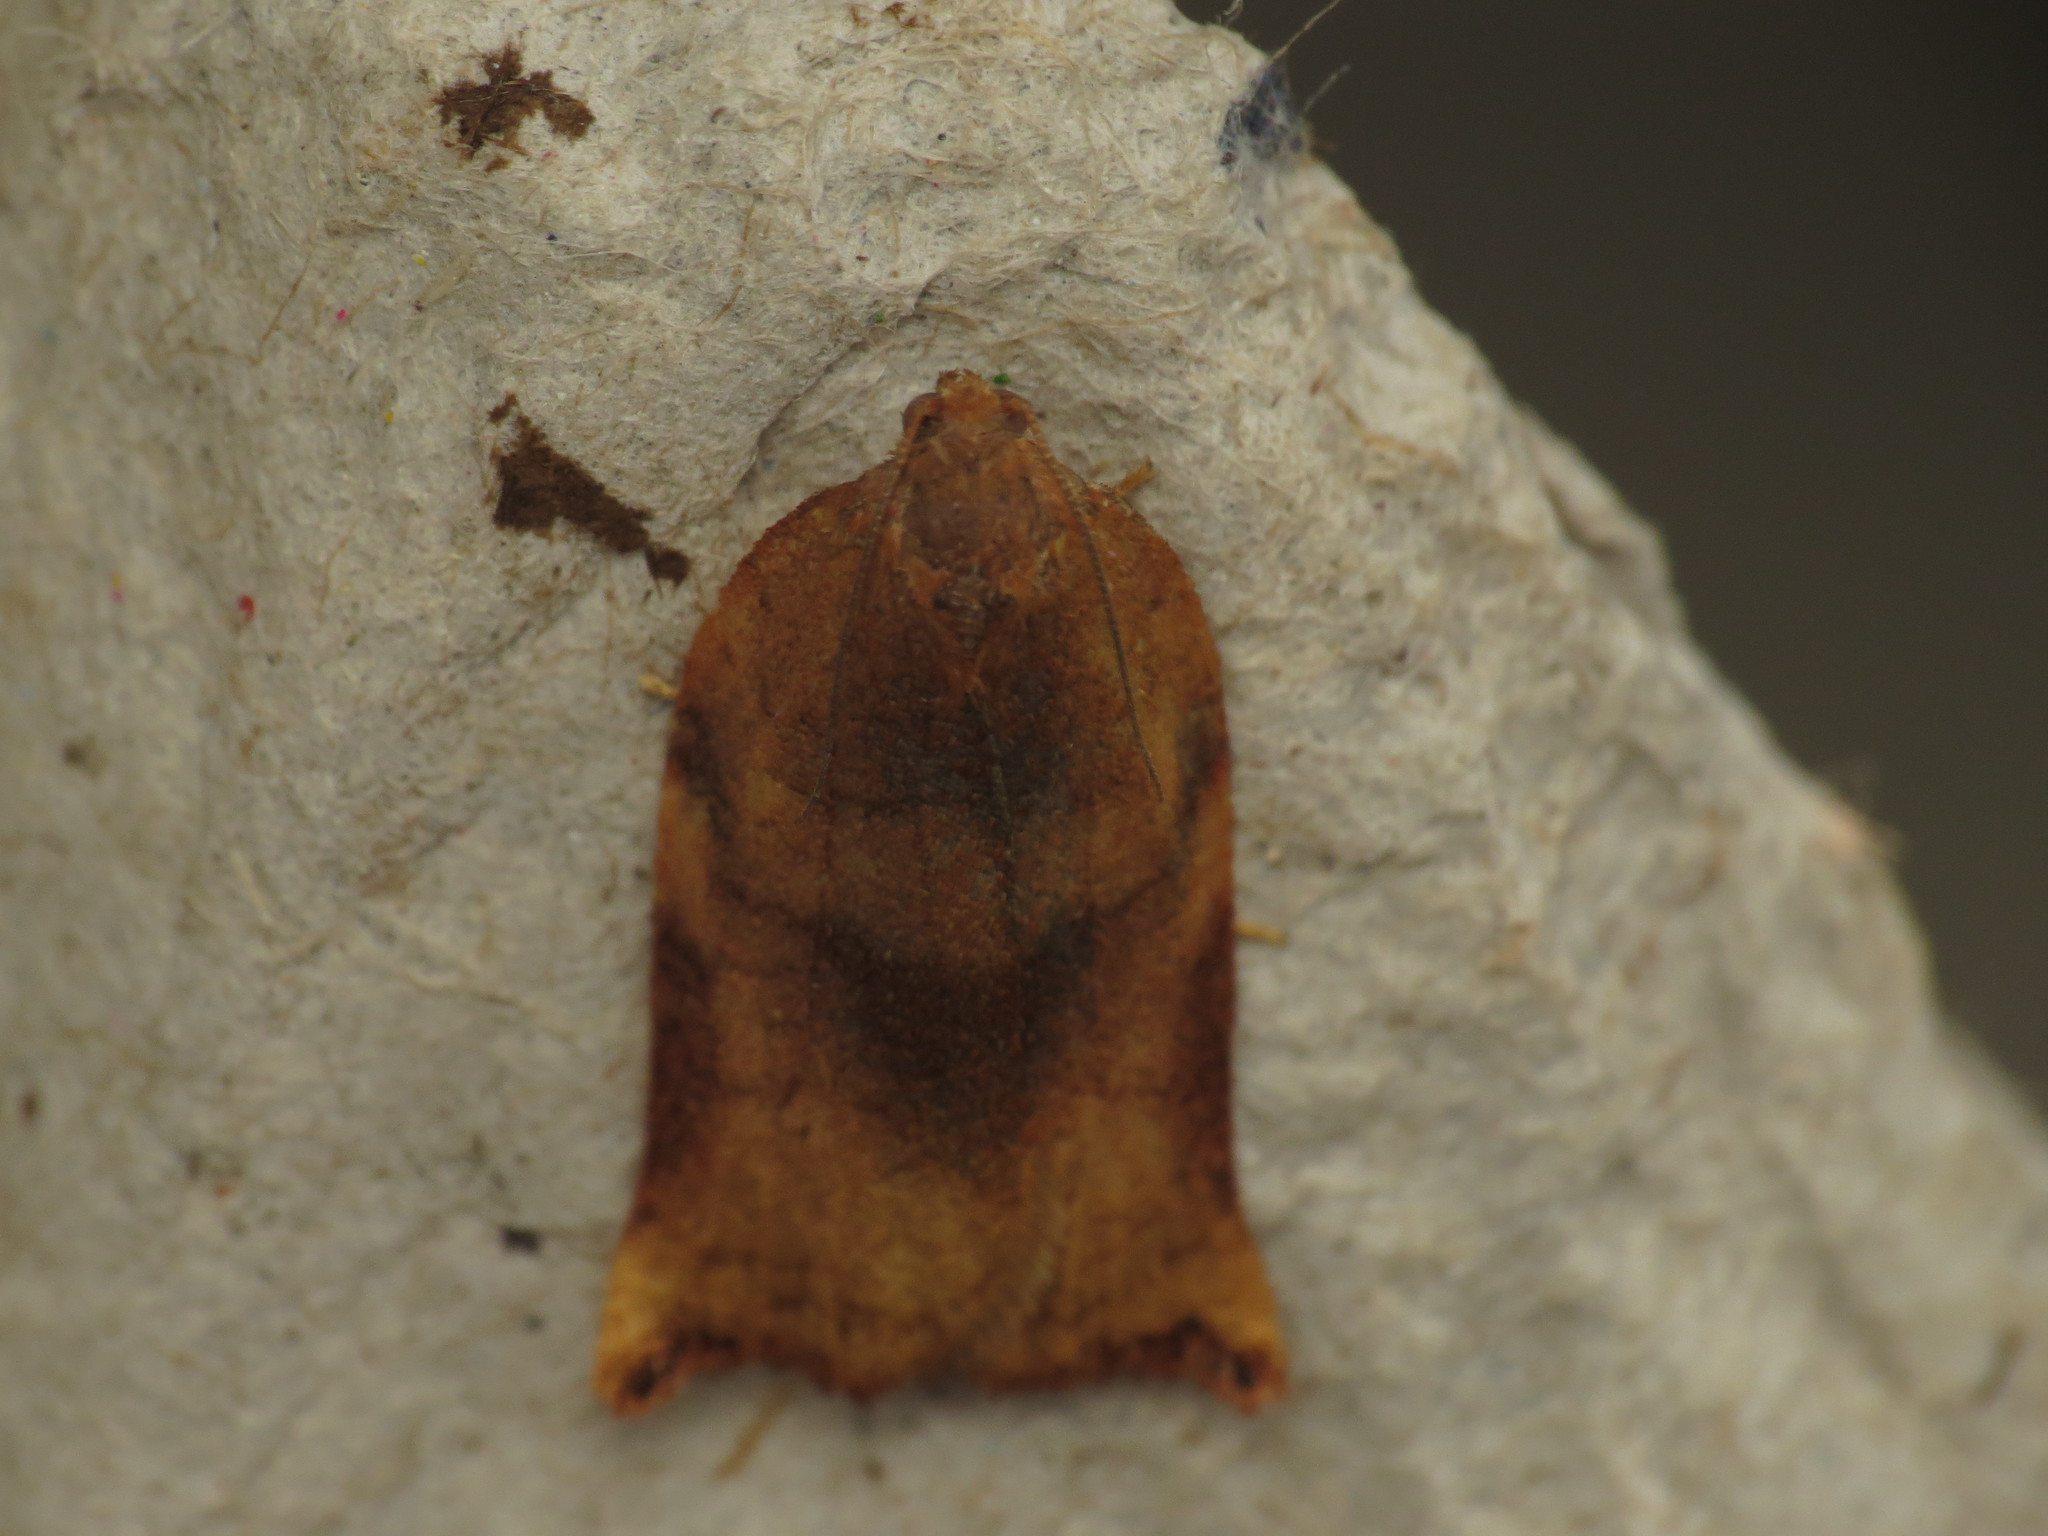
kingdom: Animalia
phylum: Arthropoda
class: Insecta
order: Lepidoptera
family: Tortricidae
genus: Archips
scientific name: Archips podana
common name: Large fruit-tree tortrix
